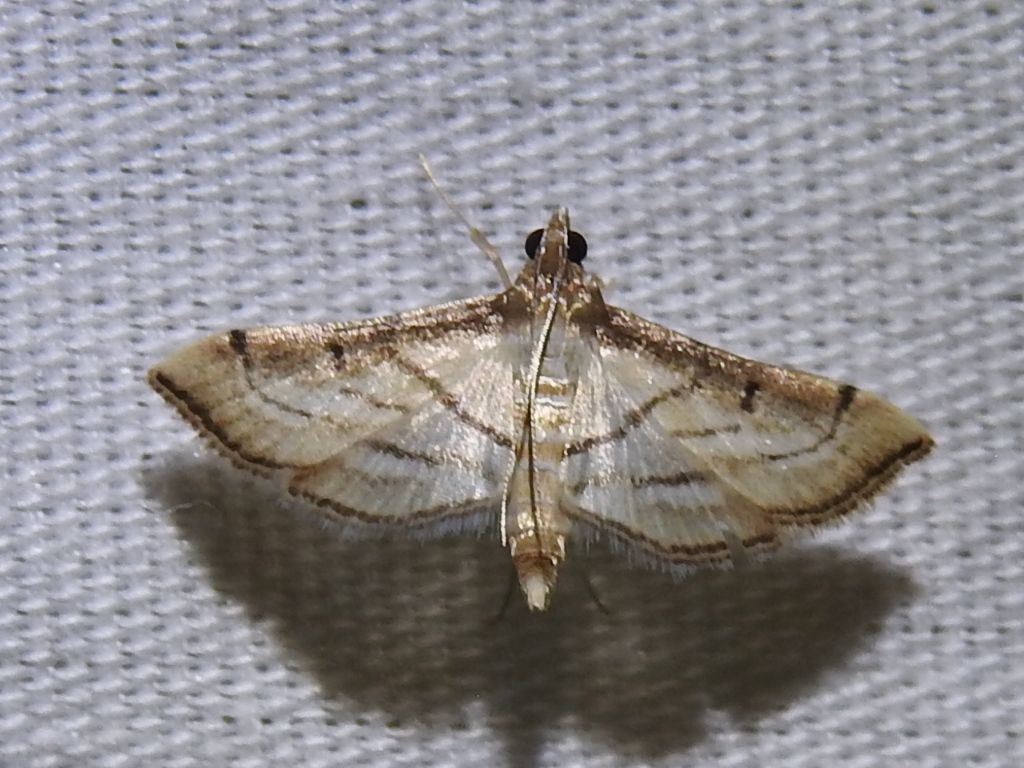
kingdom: Animalia
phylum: Arthropoda
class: Insecta
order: Lepidoptera
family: Crambidae
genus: Cnaphalocrocis
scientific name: Cnaphalocrocis Marasmia trapezalis
